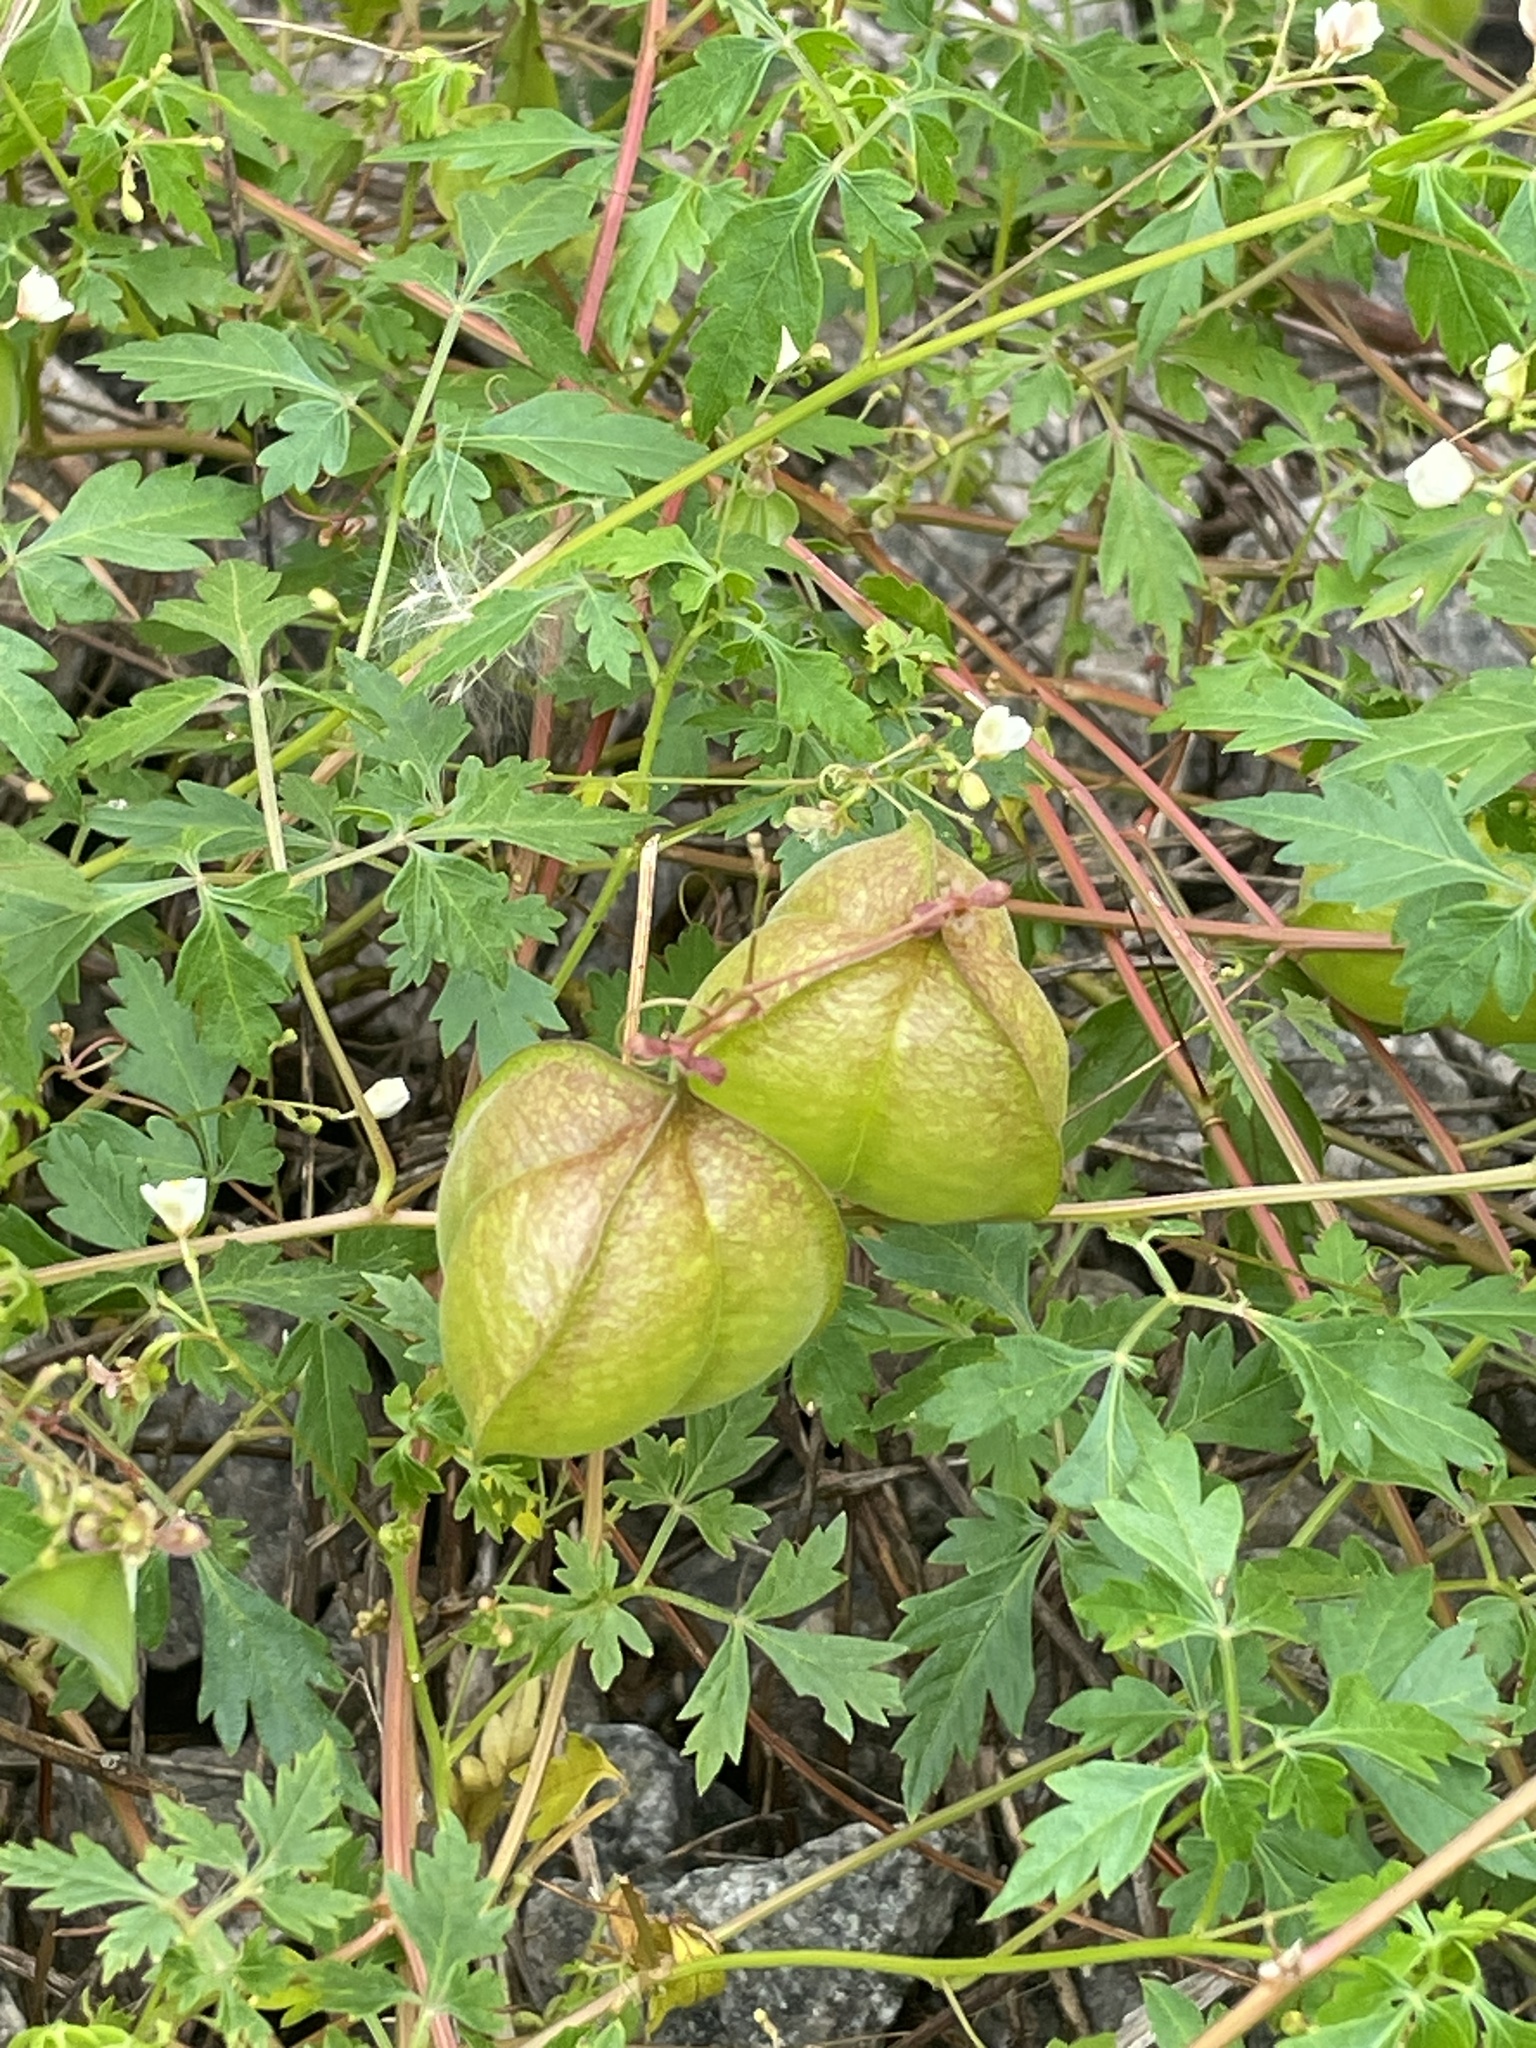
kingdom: Plantae
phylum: Tracheophyta
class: Magnoliopsida
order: Sapindales
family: Sapindaceae
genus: Cardiospermum
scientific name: Cardiospermum halicacabum
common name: Balloon vine
